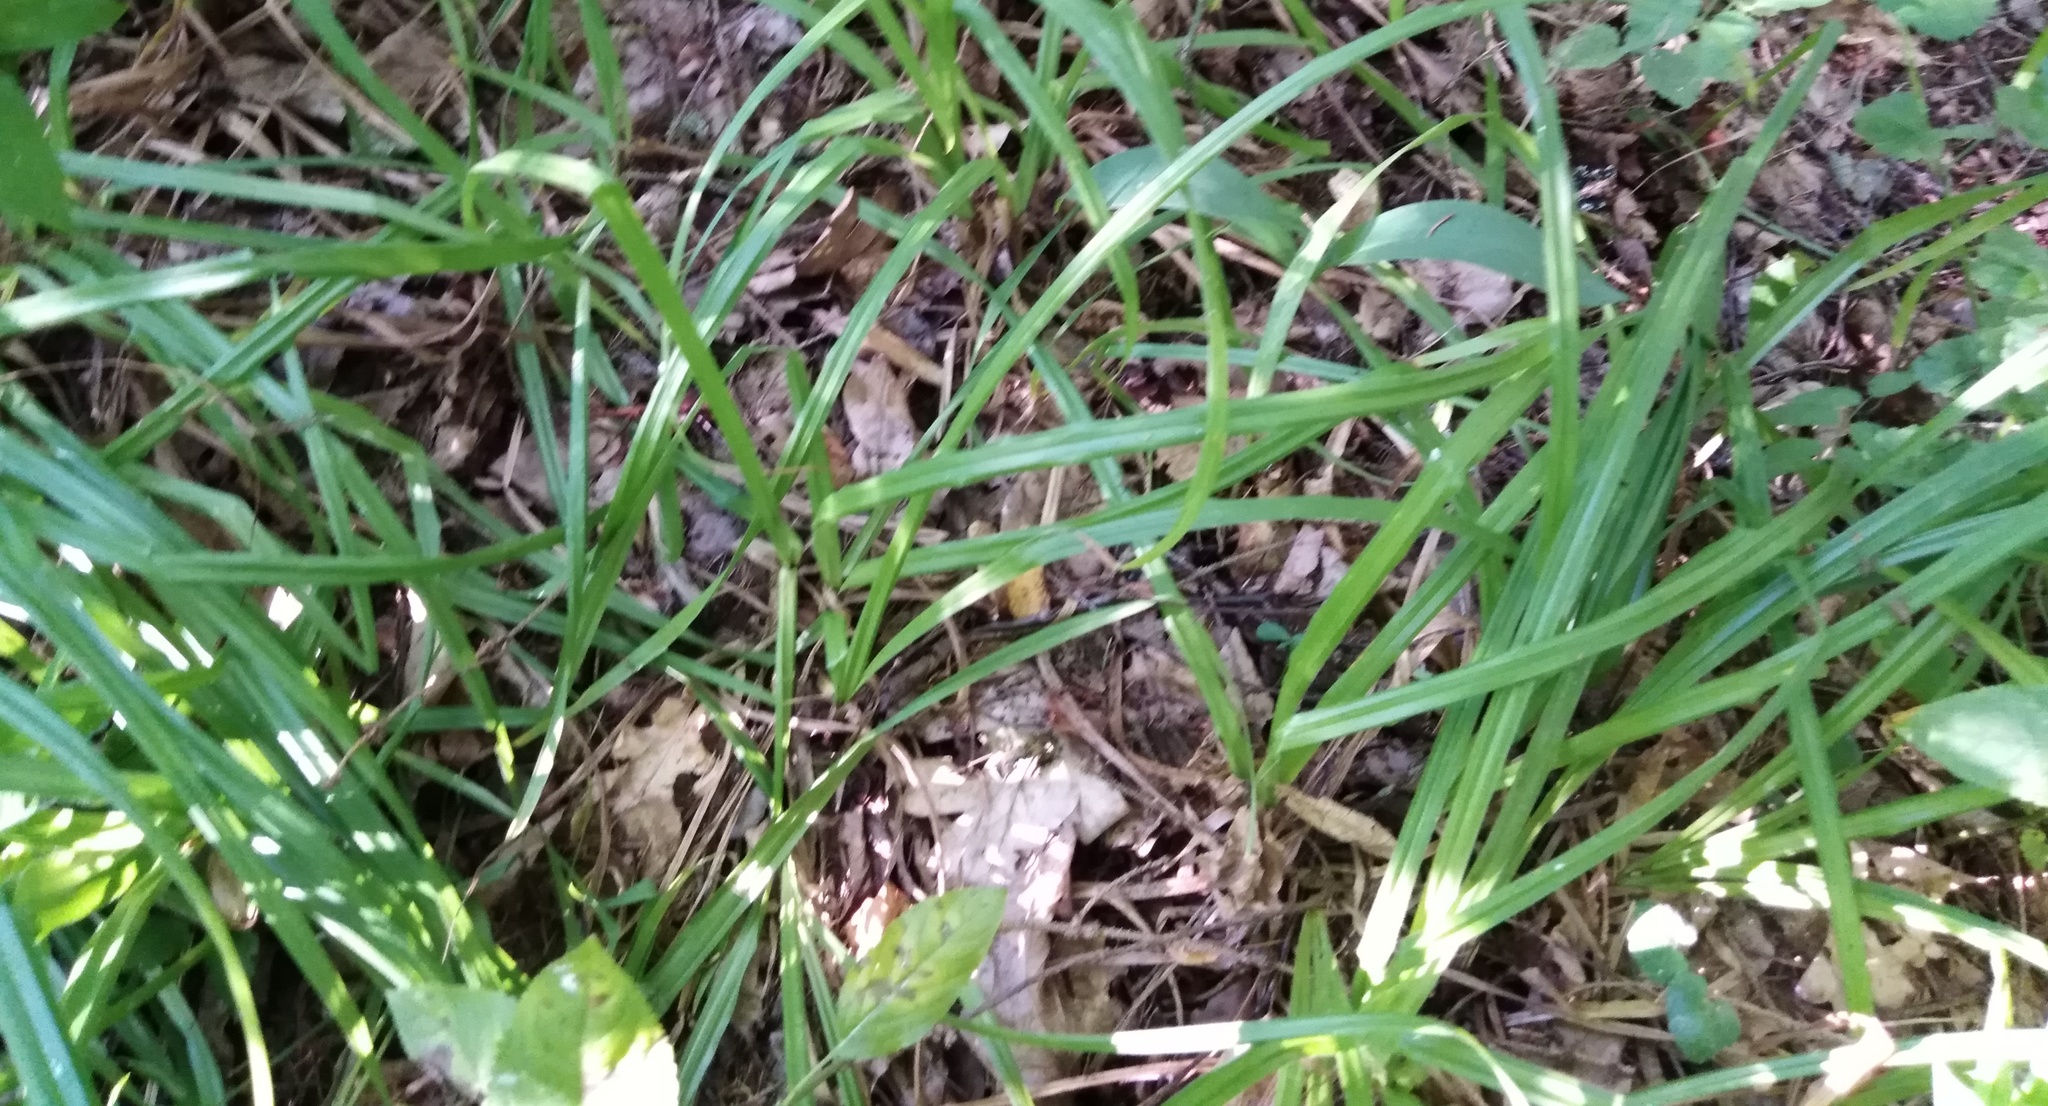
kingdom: Plantae
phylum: Tracheophyta
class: Liliopsida
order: Poales
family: Cyperaceae
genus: Carex
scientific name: Carex pilosa
